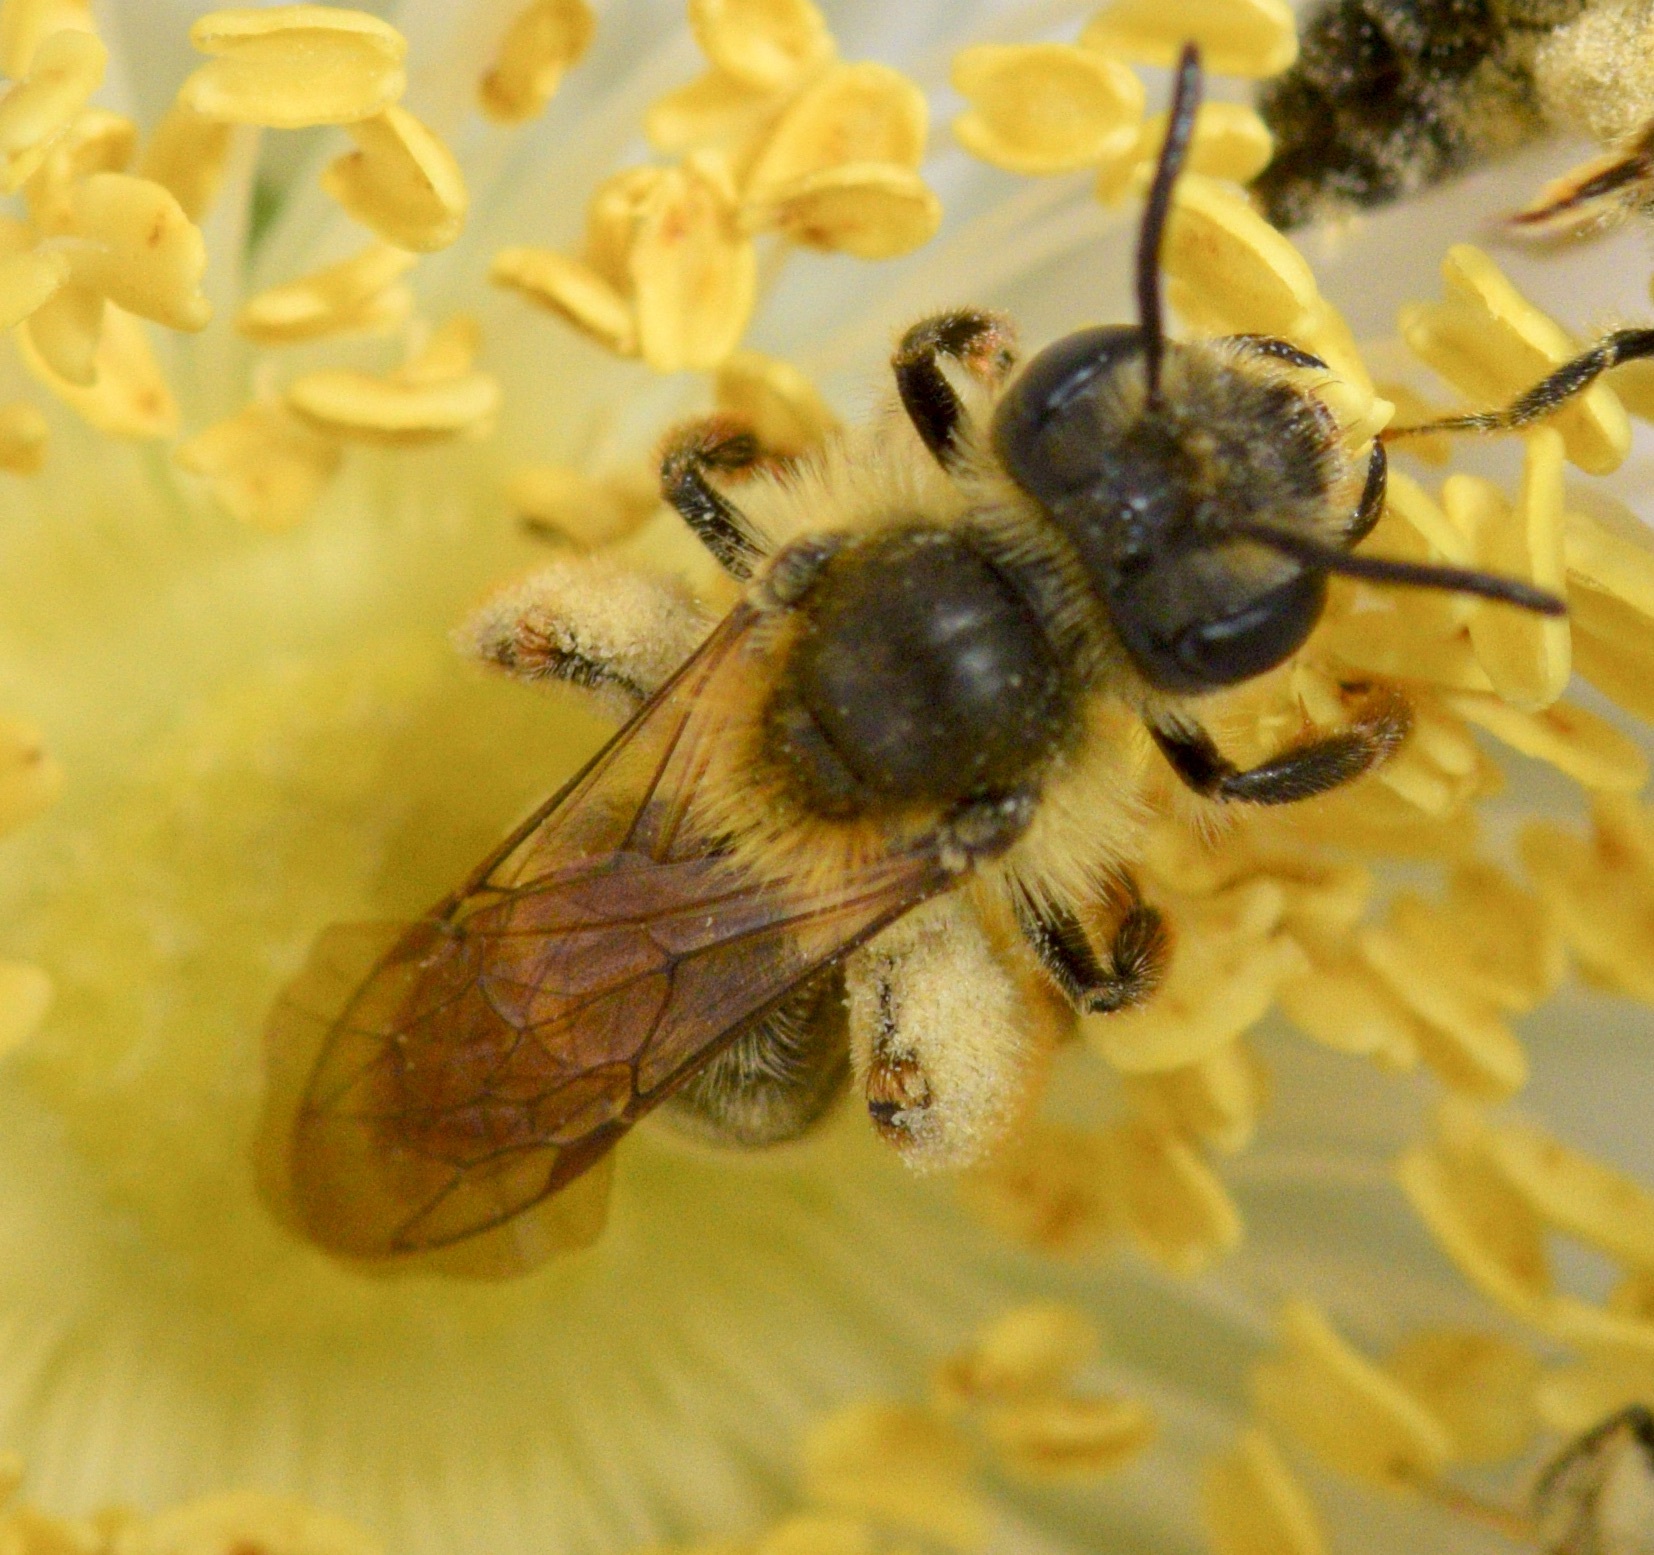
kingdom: Animalia
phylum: Arthropoda
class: Insecta
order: Hymenoptera
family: Andrenidae
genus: Andrena
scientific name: Andrena thaspii
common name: Parsnip miner bee
